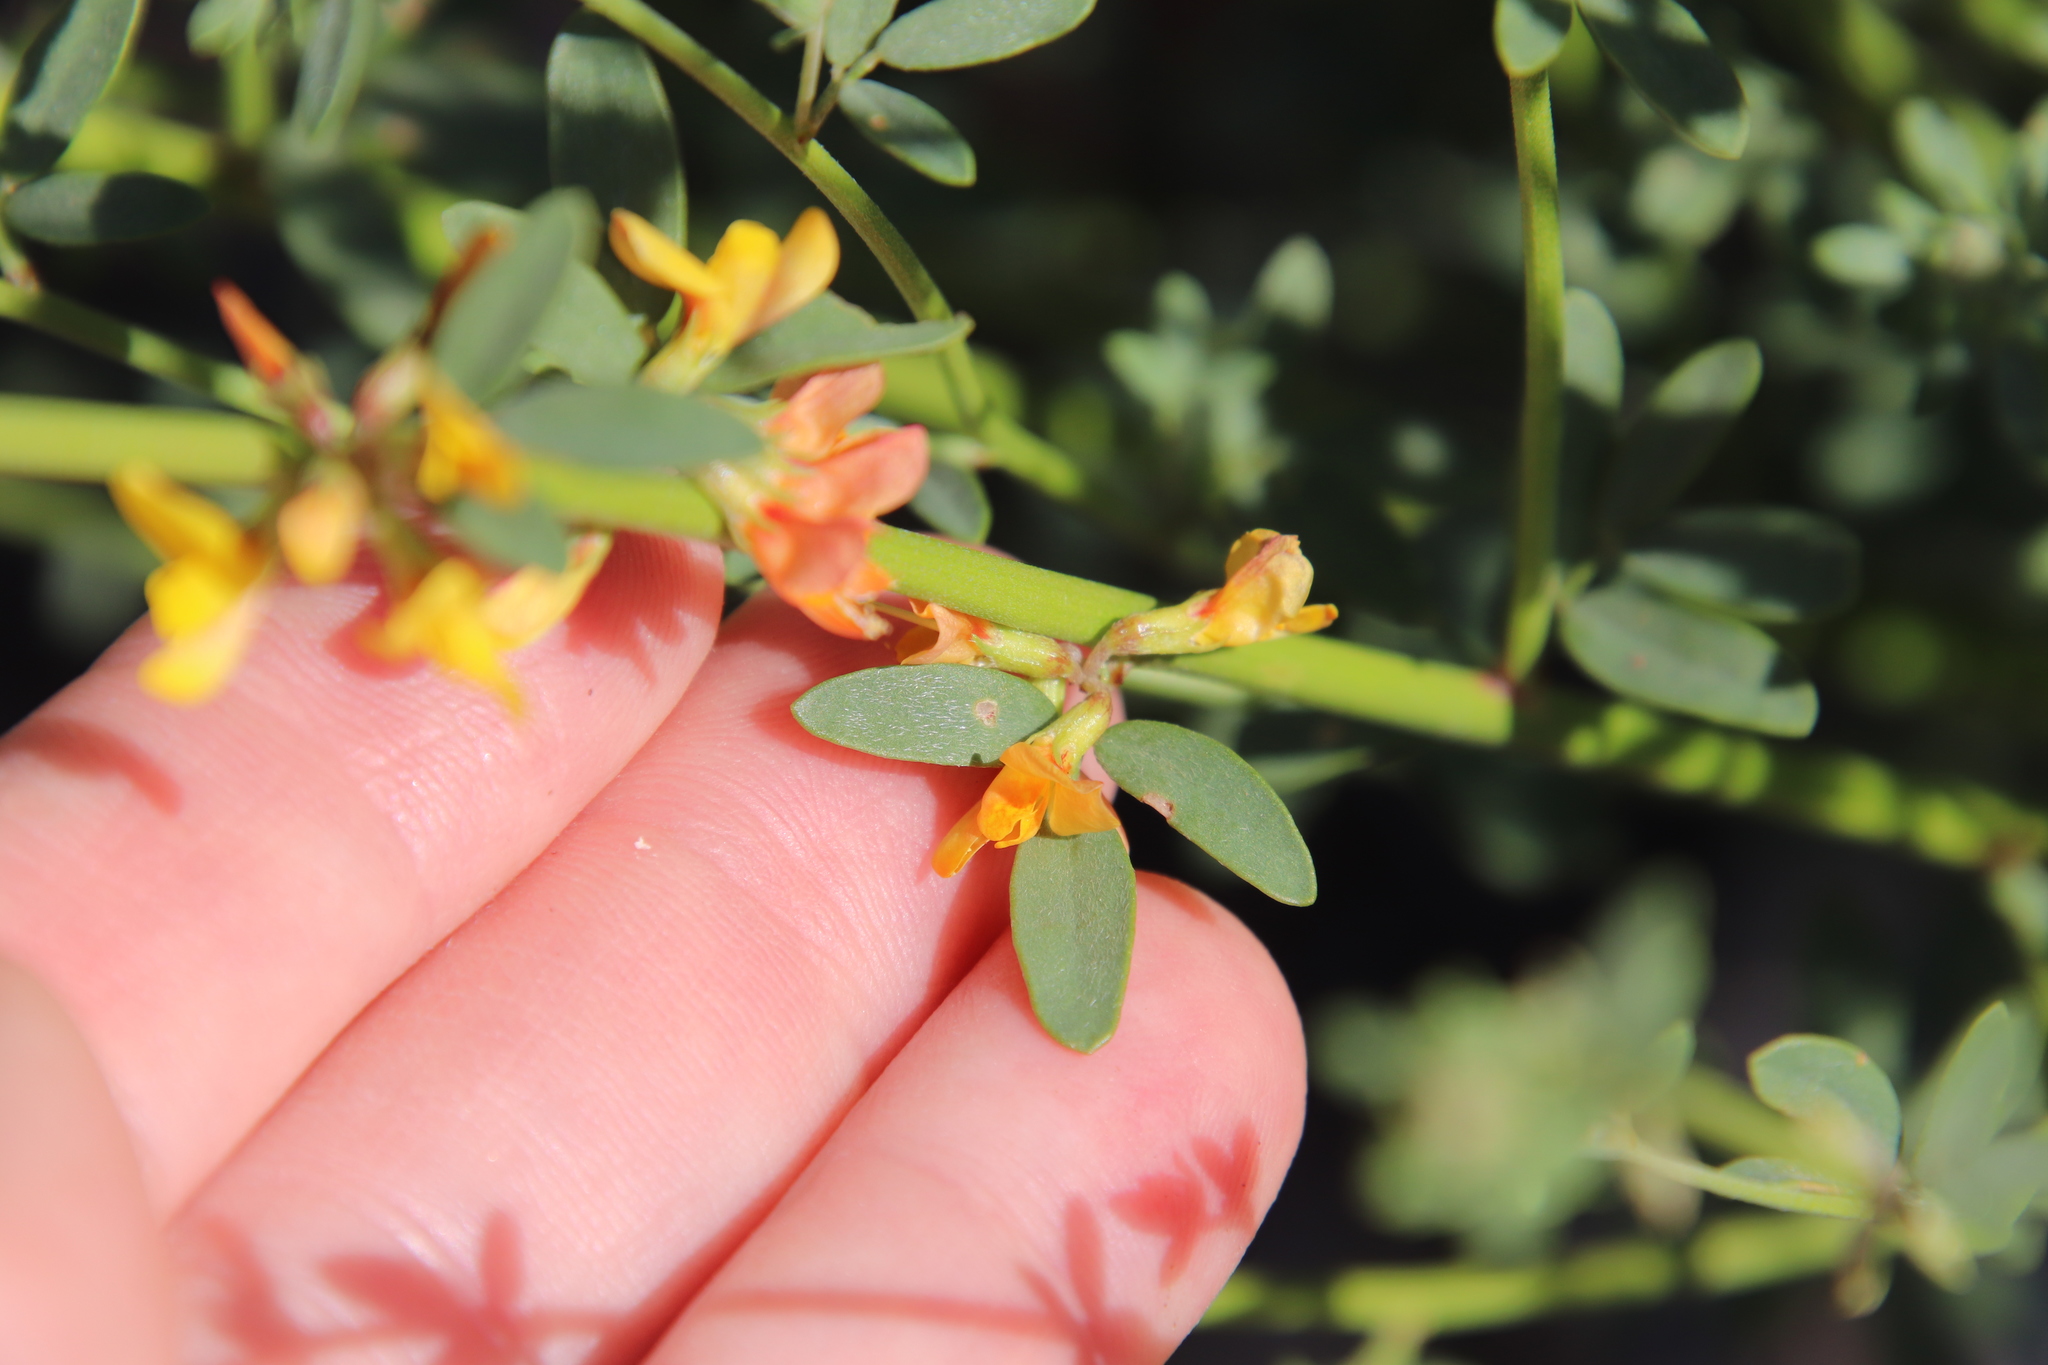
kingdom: Plantae
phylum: Tracheophyta
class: Magnoliopsida
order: Fabales
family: Fabaceae
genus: Acmispon
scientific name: Acmispon glaber
